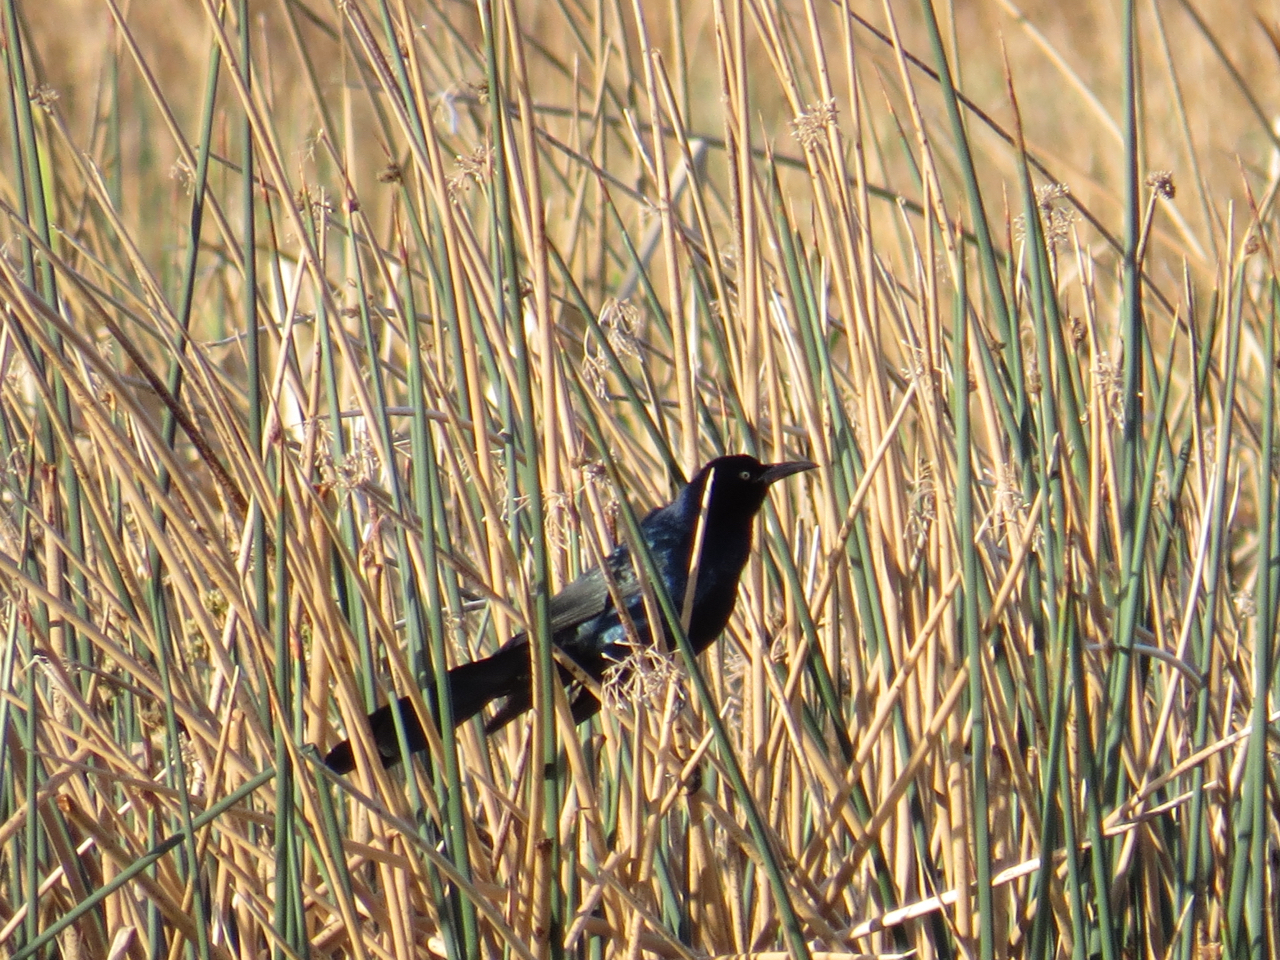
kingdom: Animalia
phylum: Chordata
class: Aves
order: Passeriformes
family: Icteridae
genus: Quiscalus
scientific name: Quiscalus mexicanus
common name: Great-tailed grackle
